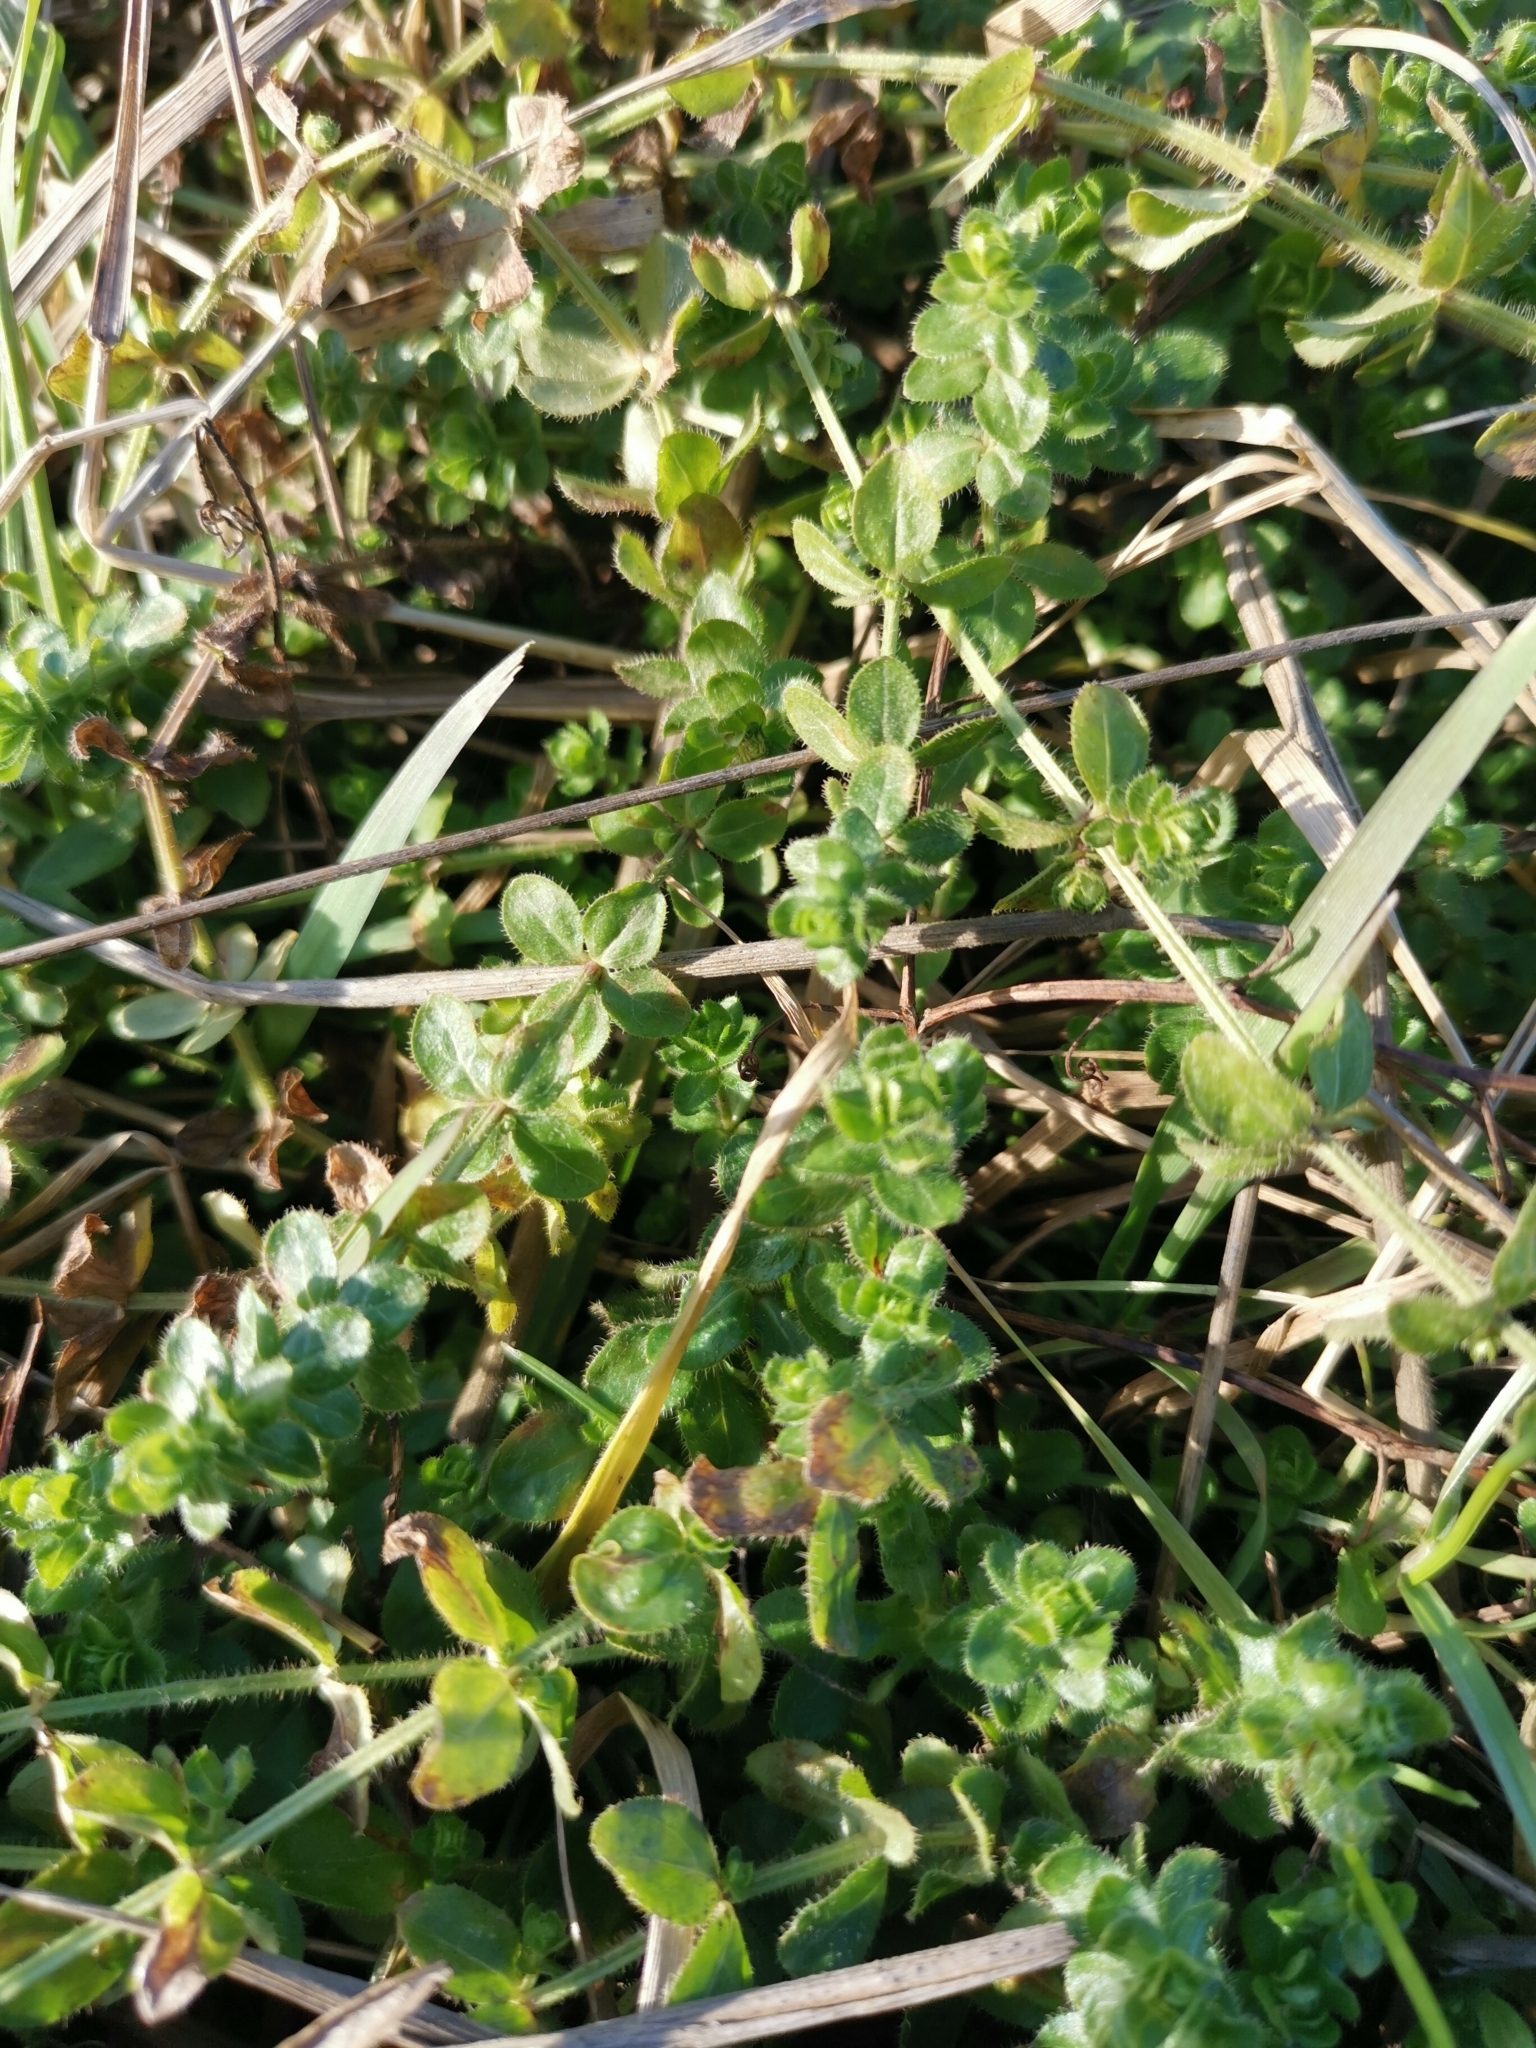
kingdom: Plantae
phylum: Tracheophyta
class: Magnoliopsida
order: Gentianales
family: Rubiaceae
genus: Cruciata
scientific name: Cruciata laevipes
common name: Crosswort
